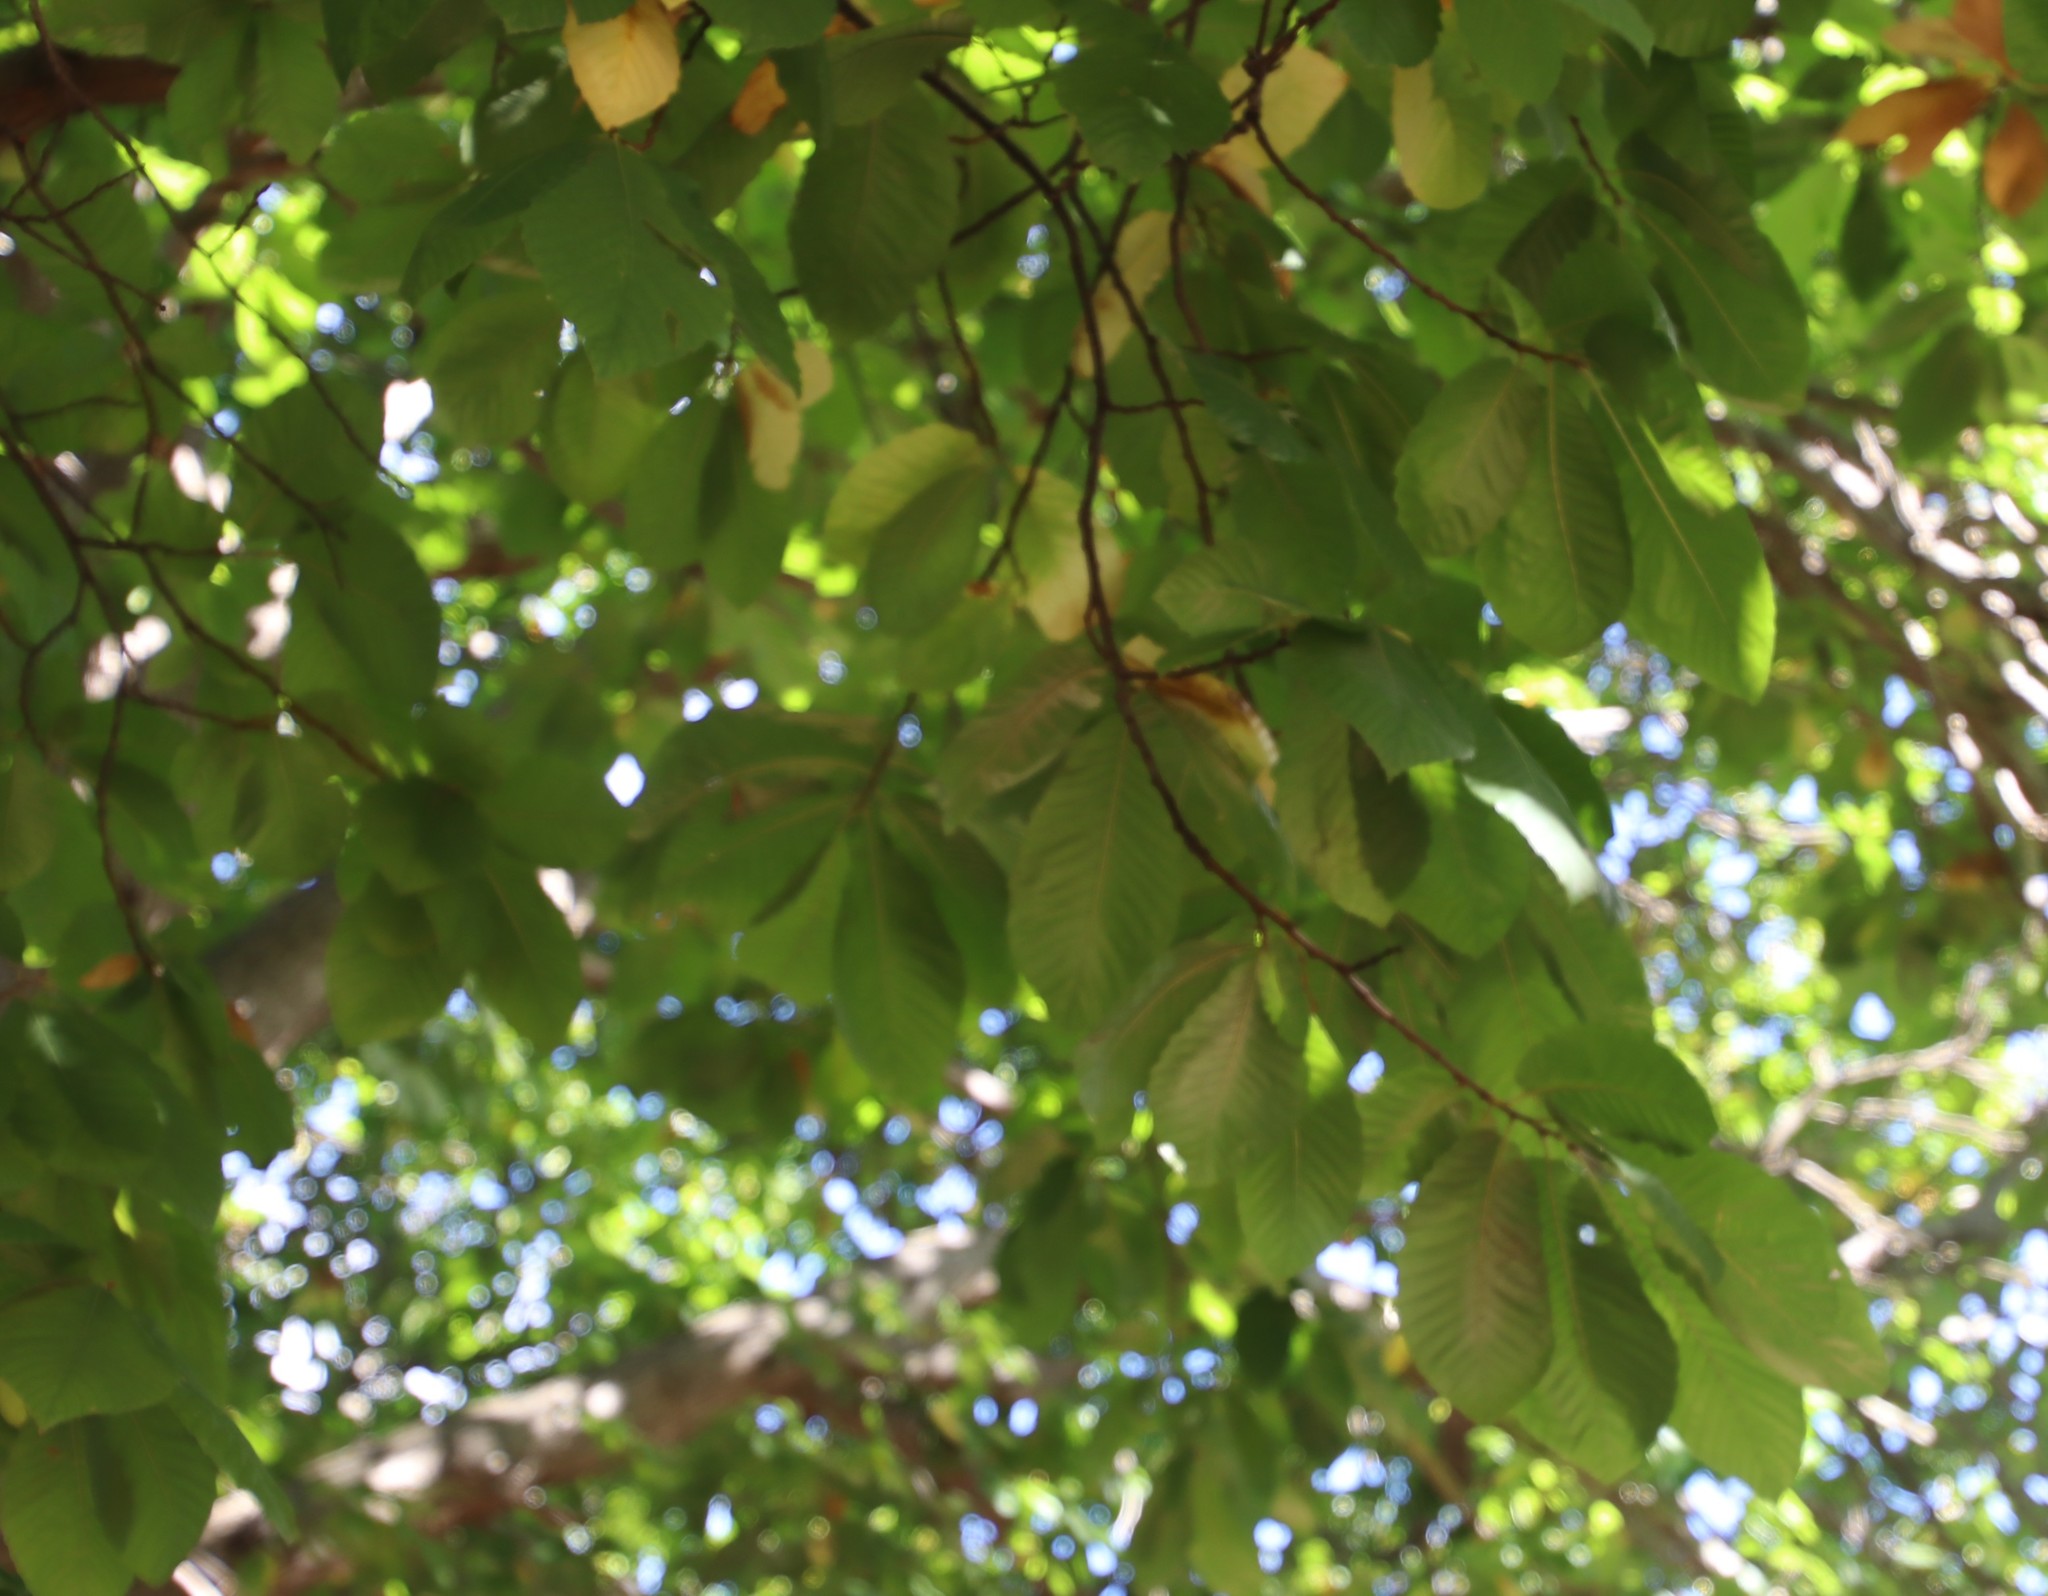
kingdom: Plantae
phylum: Tracheophyta
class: Magnoliopsida
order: Fagales
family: Fagaceae
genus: Castanea
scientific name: Castanea sativa
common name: Sweet chestnut
